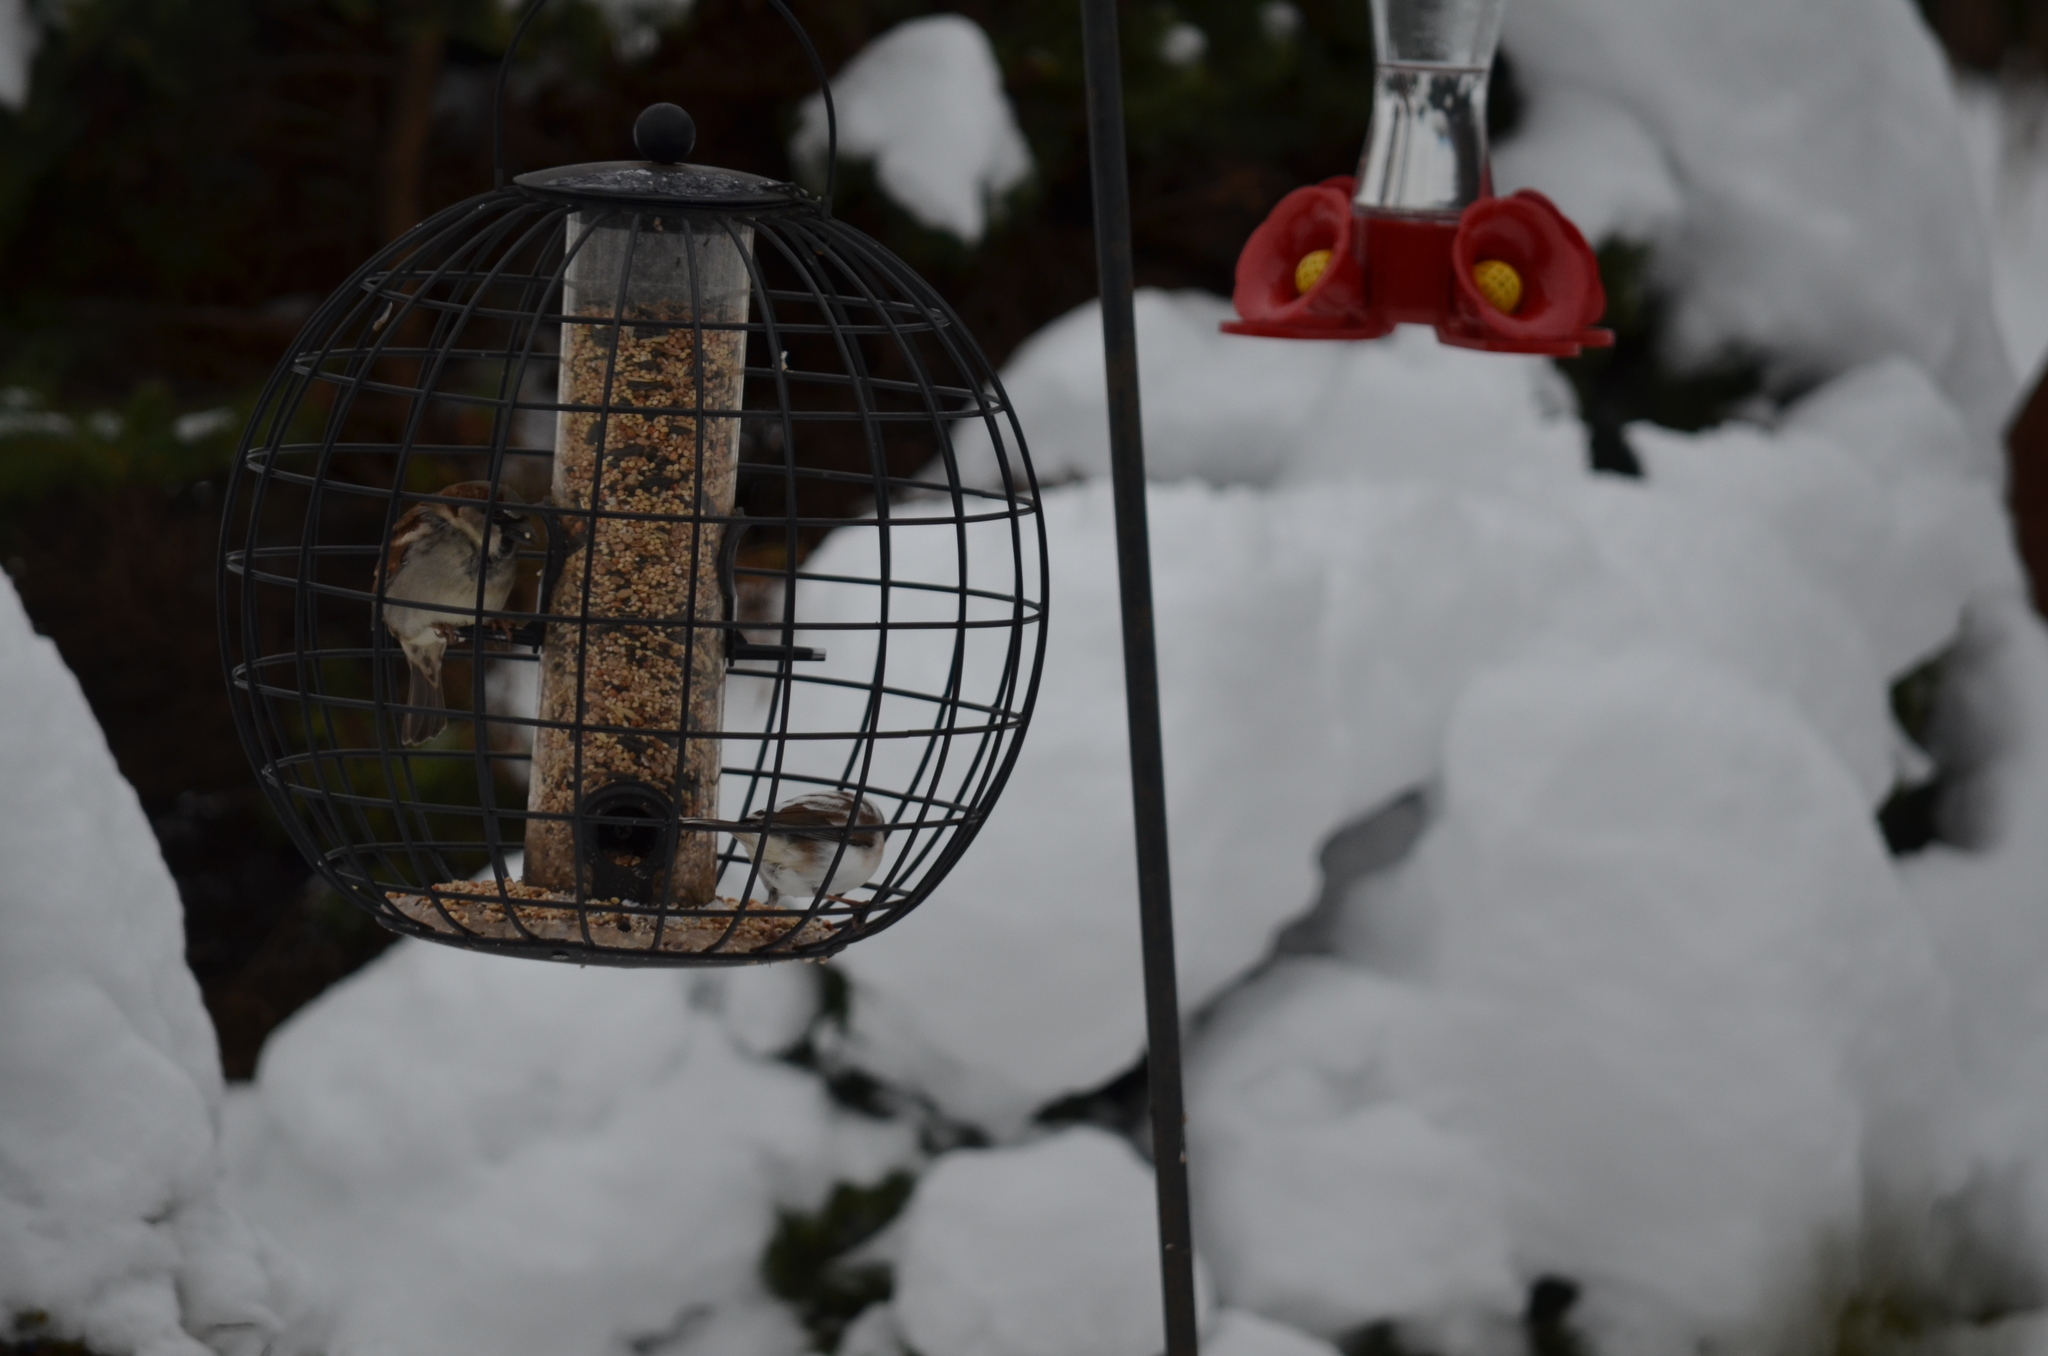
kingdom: Animalia
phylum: Chordata
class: Aves
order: Passeriformes
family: Passeridae
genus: Passer
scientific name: Passer domesticus
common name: House sparrow
